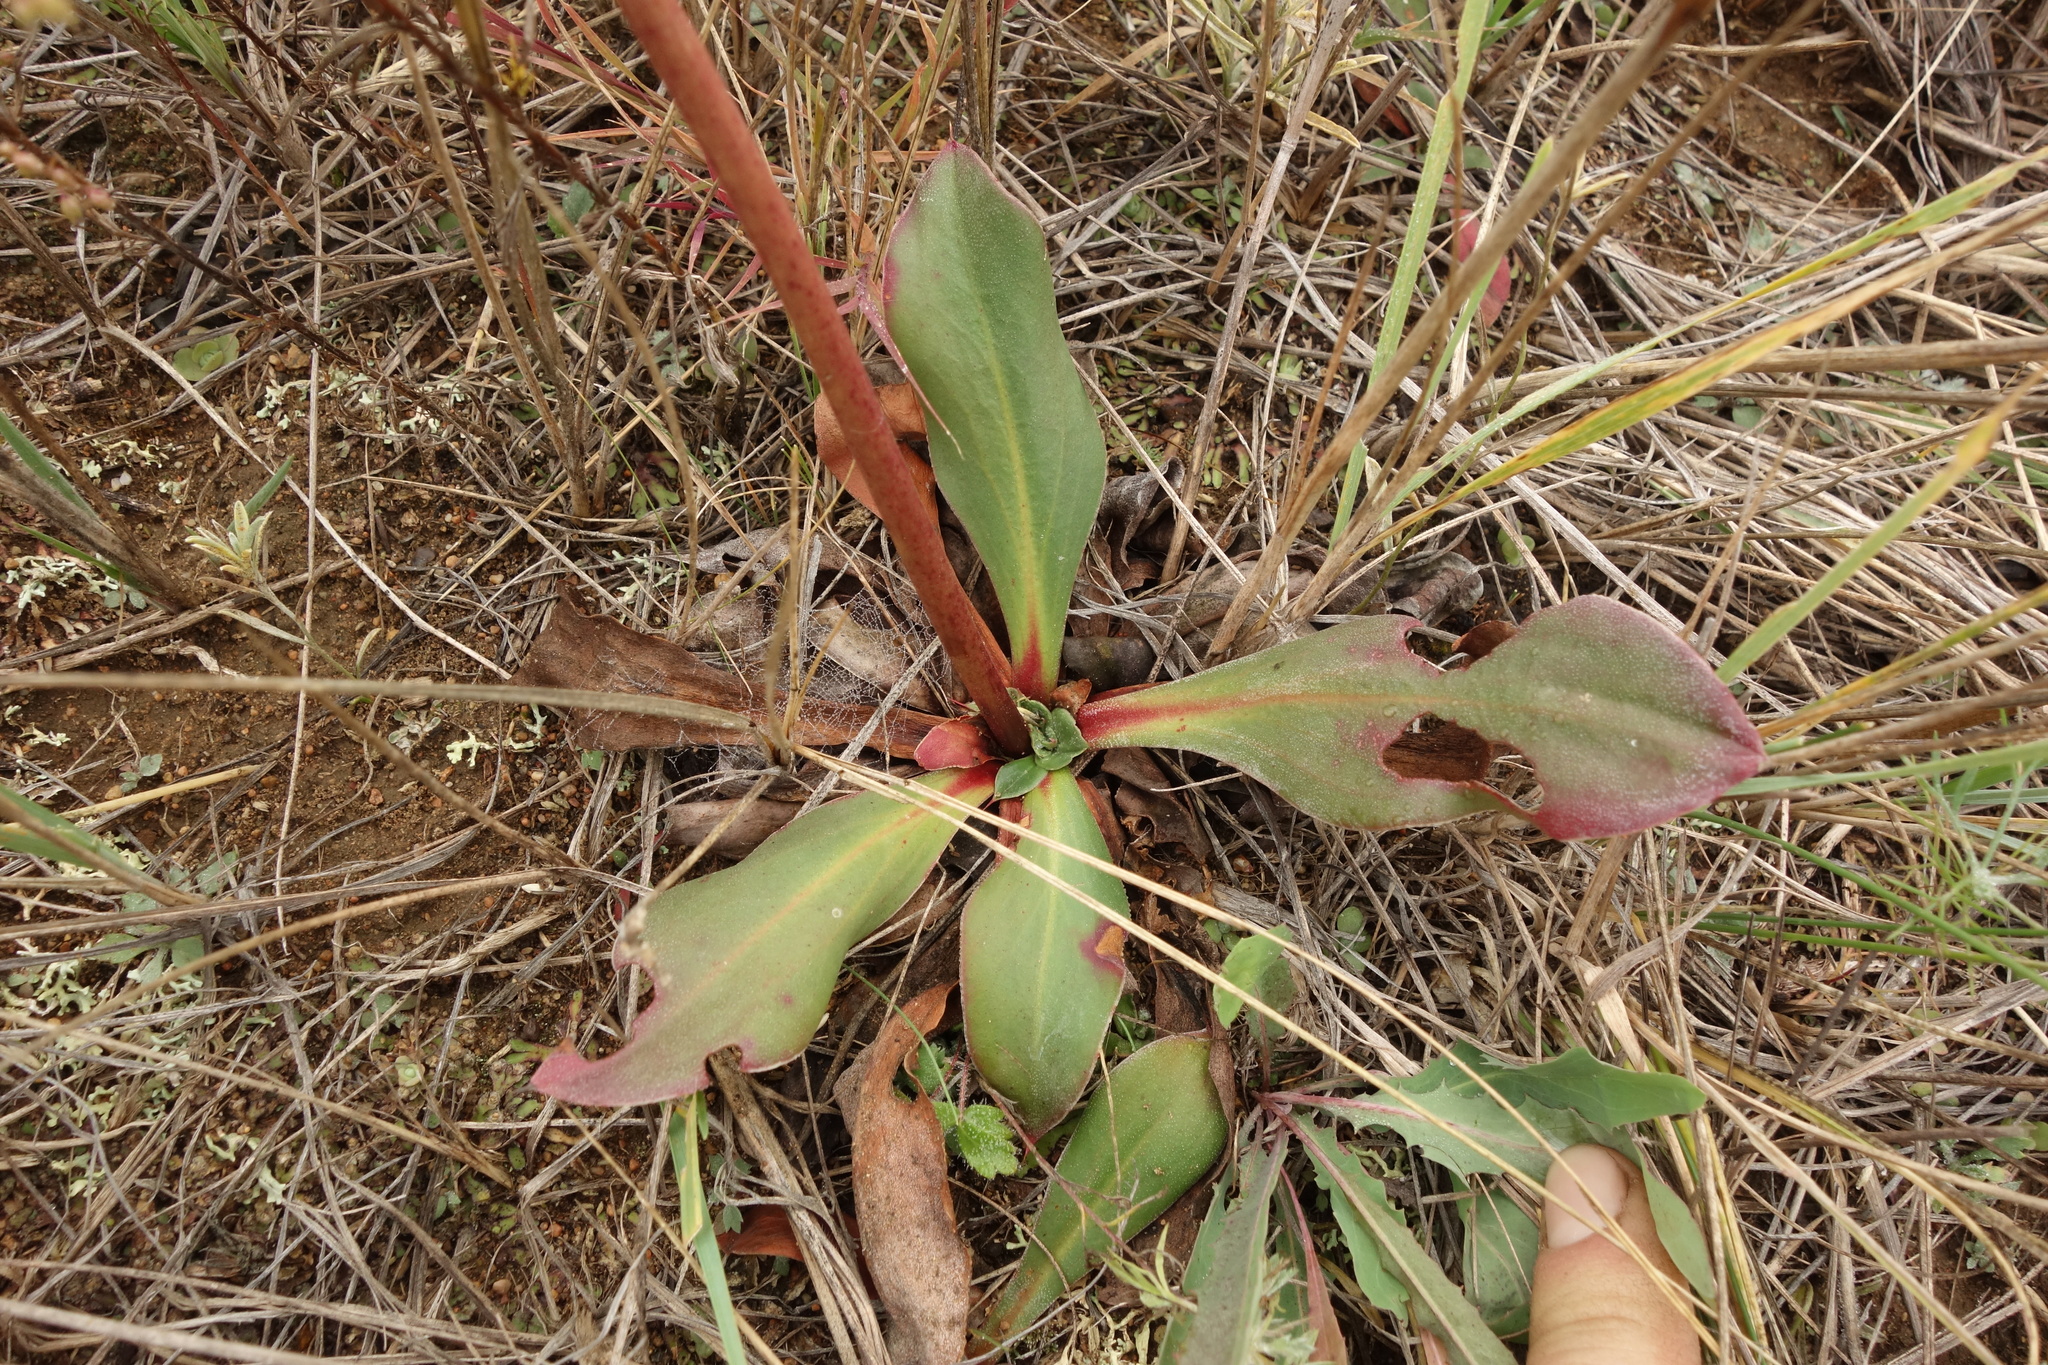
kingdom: Plantae
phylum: Tracheophyta
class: Magnoliopsida
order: Caryophyllales
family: Plumbaginaceae
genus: Goniolimon
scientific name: Goniolimon speciosum
